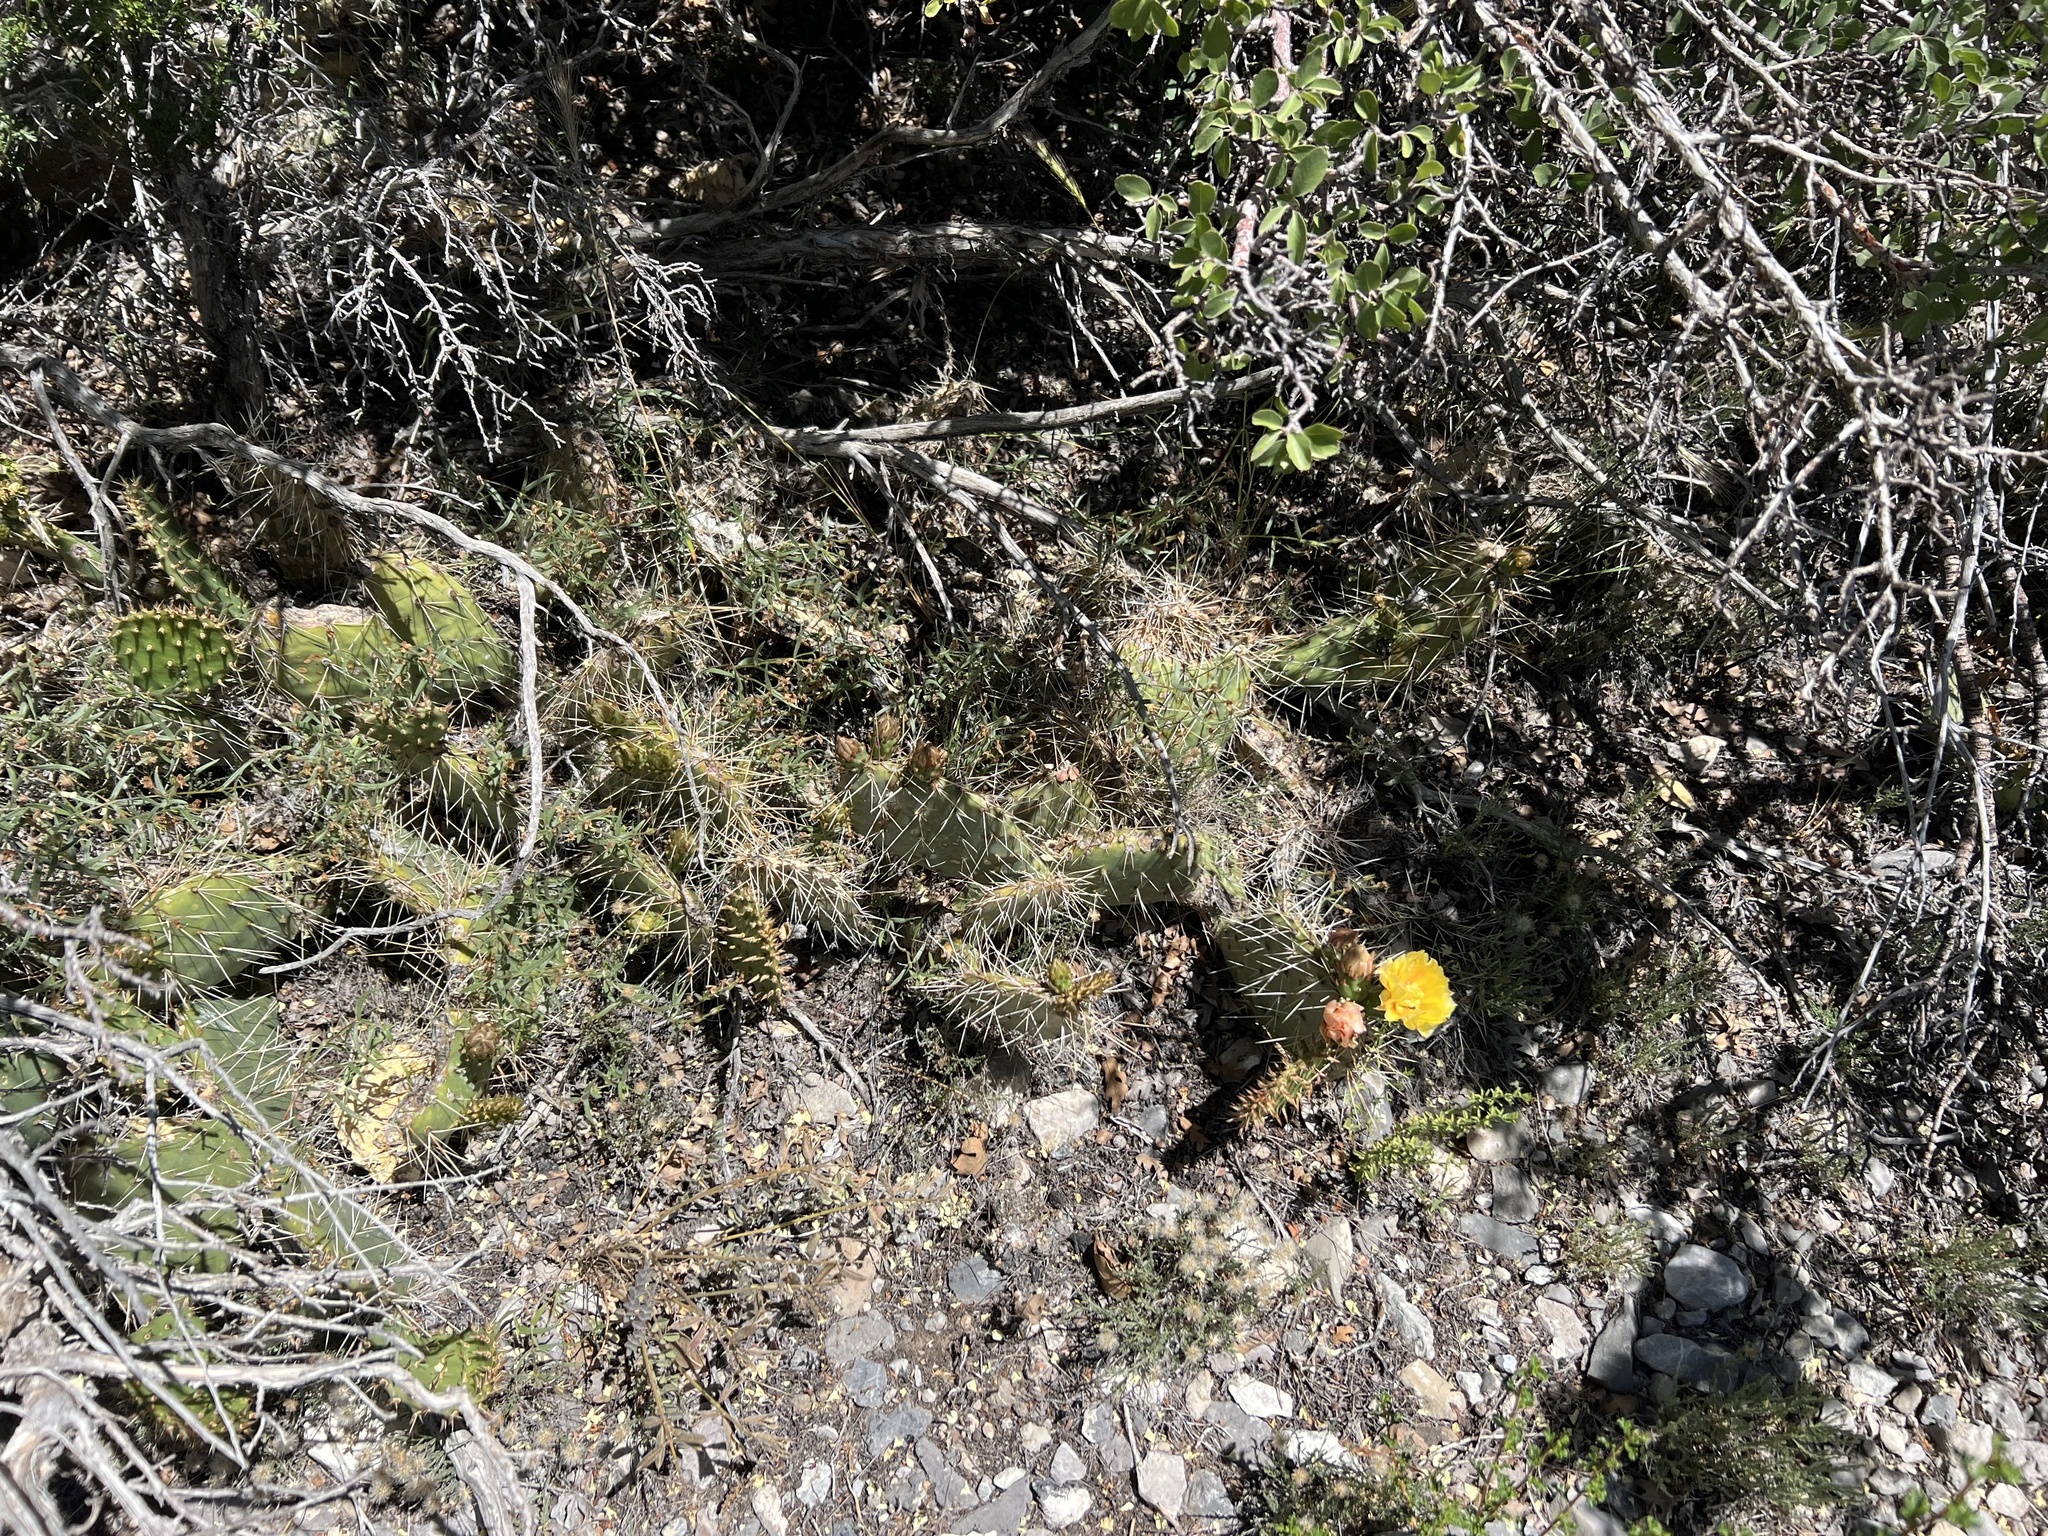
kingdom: Plantae
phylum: Tracheophyta
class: Magnoliopsida
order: Caryophyllales
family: Cactaceae
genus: Opuntia
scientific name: Opuntia phaeacantha
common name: New mexico prickly-pear
